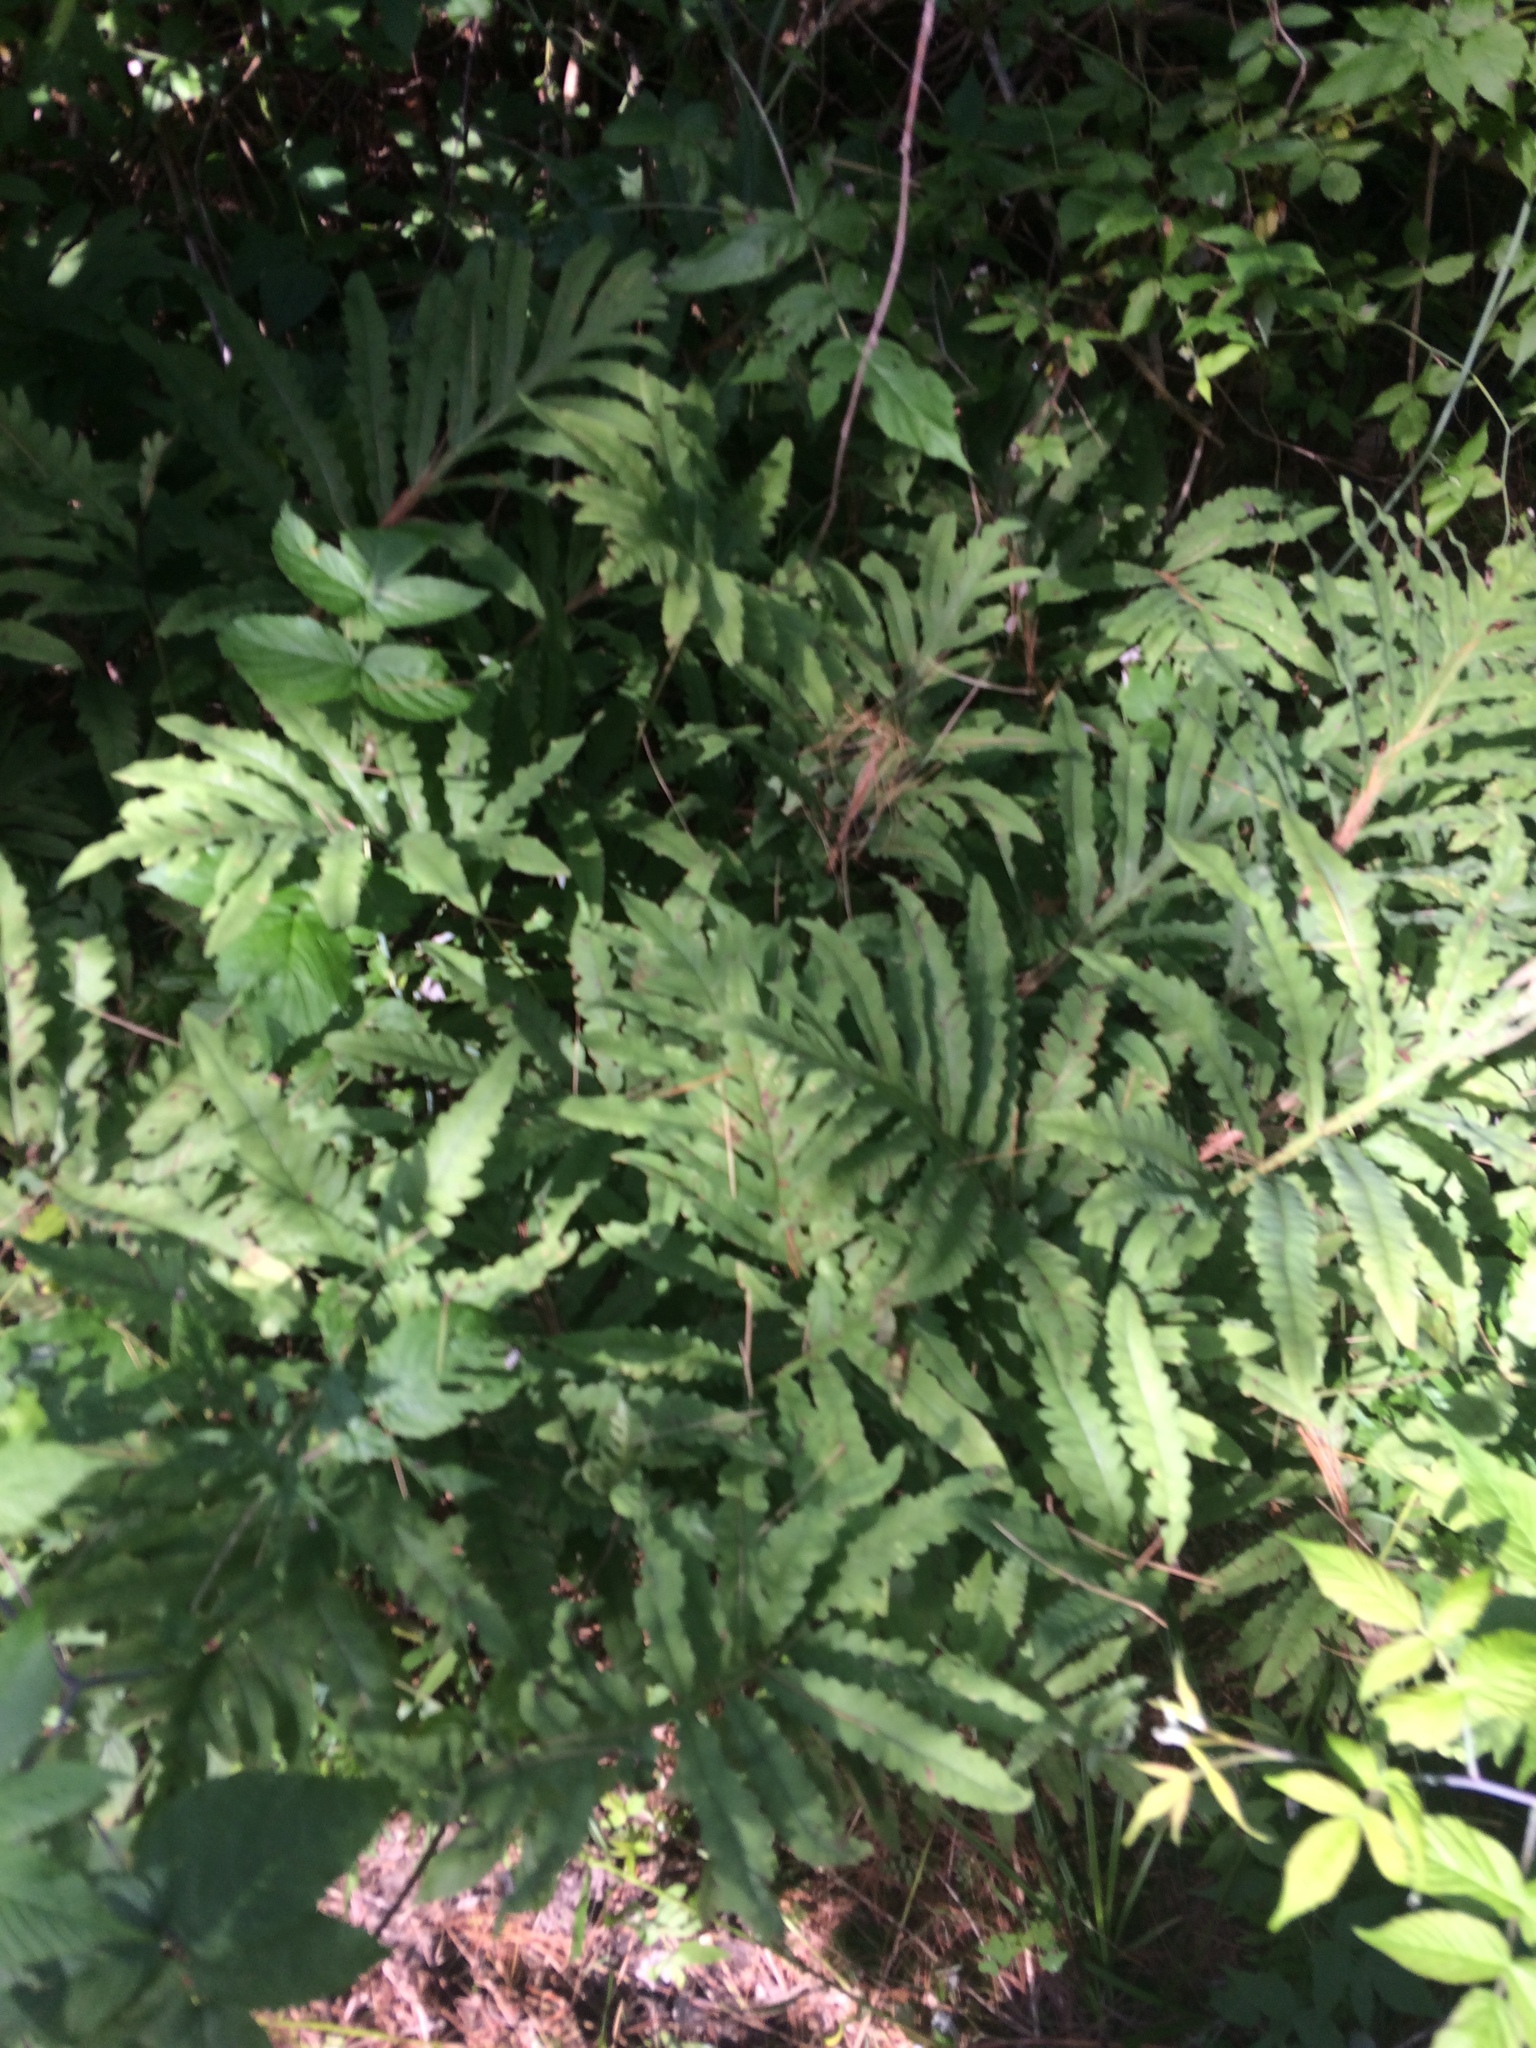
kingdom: Plantae
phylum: Tracheophyta
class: Polypodiopsida
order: Polypodiales
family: Onocleaceae
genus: Onoclea
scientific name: Onoclea sensibilis
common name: Sensitive fern
